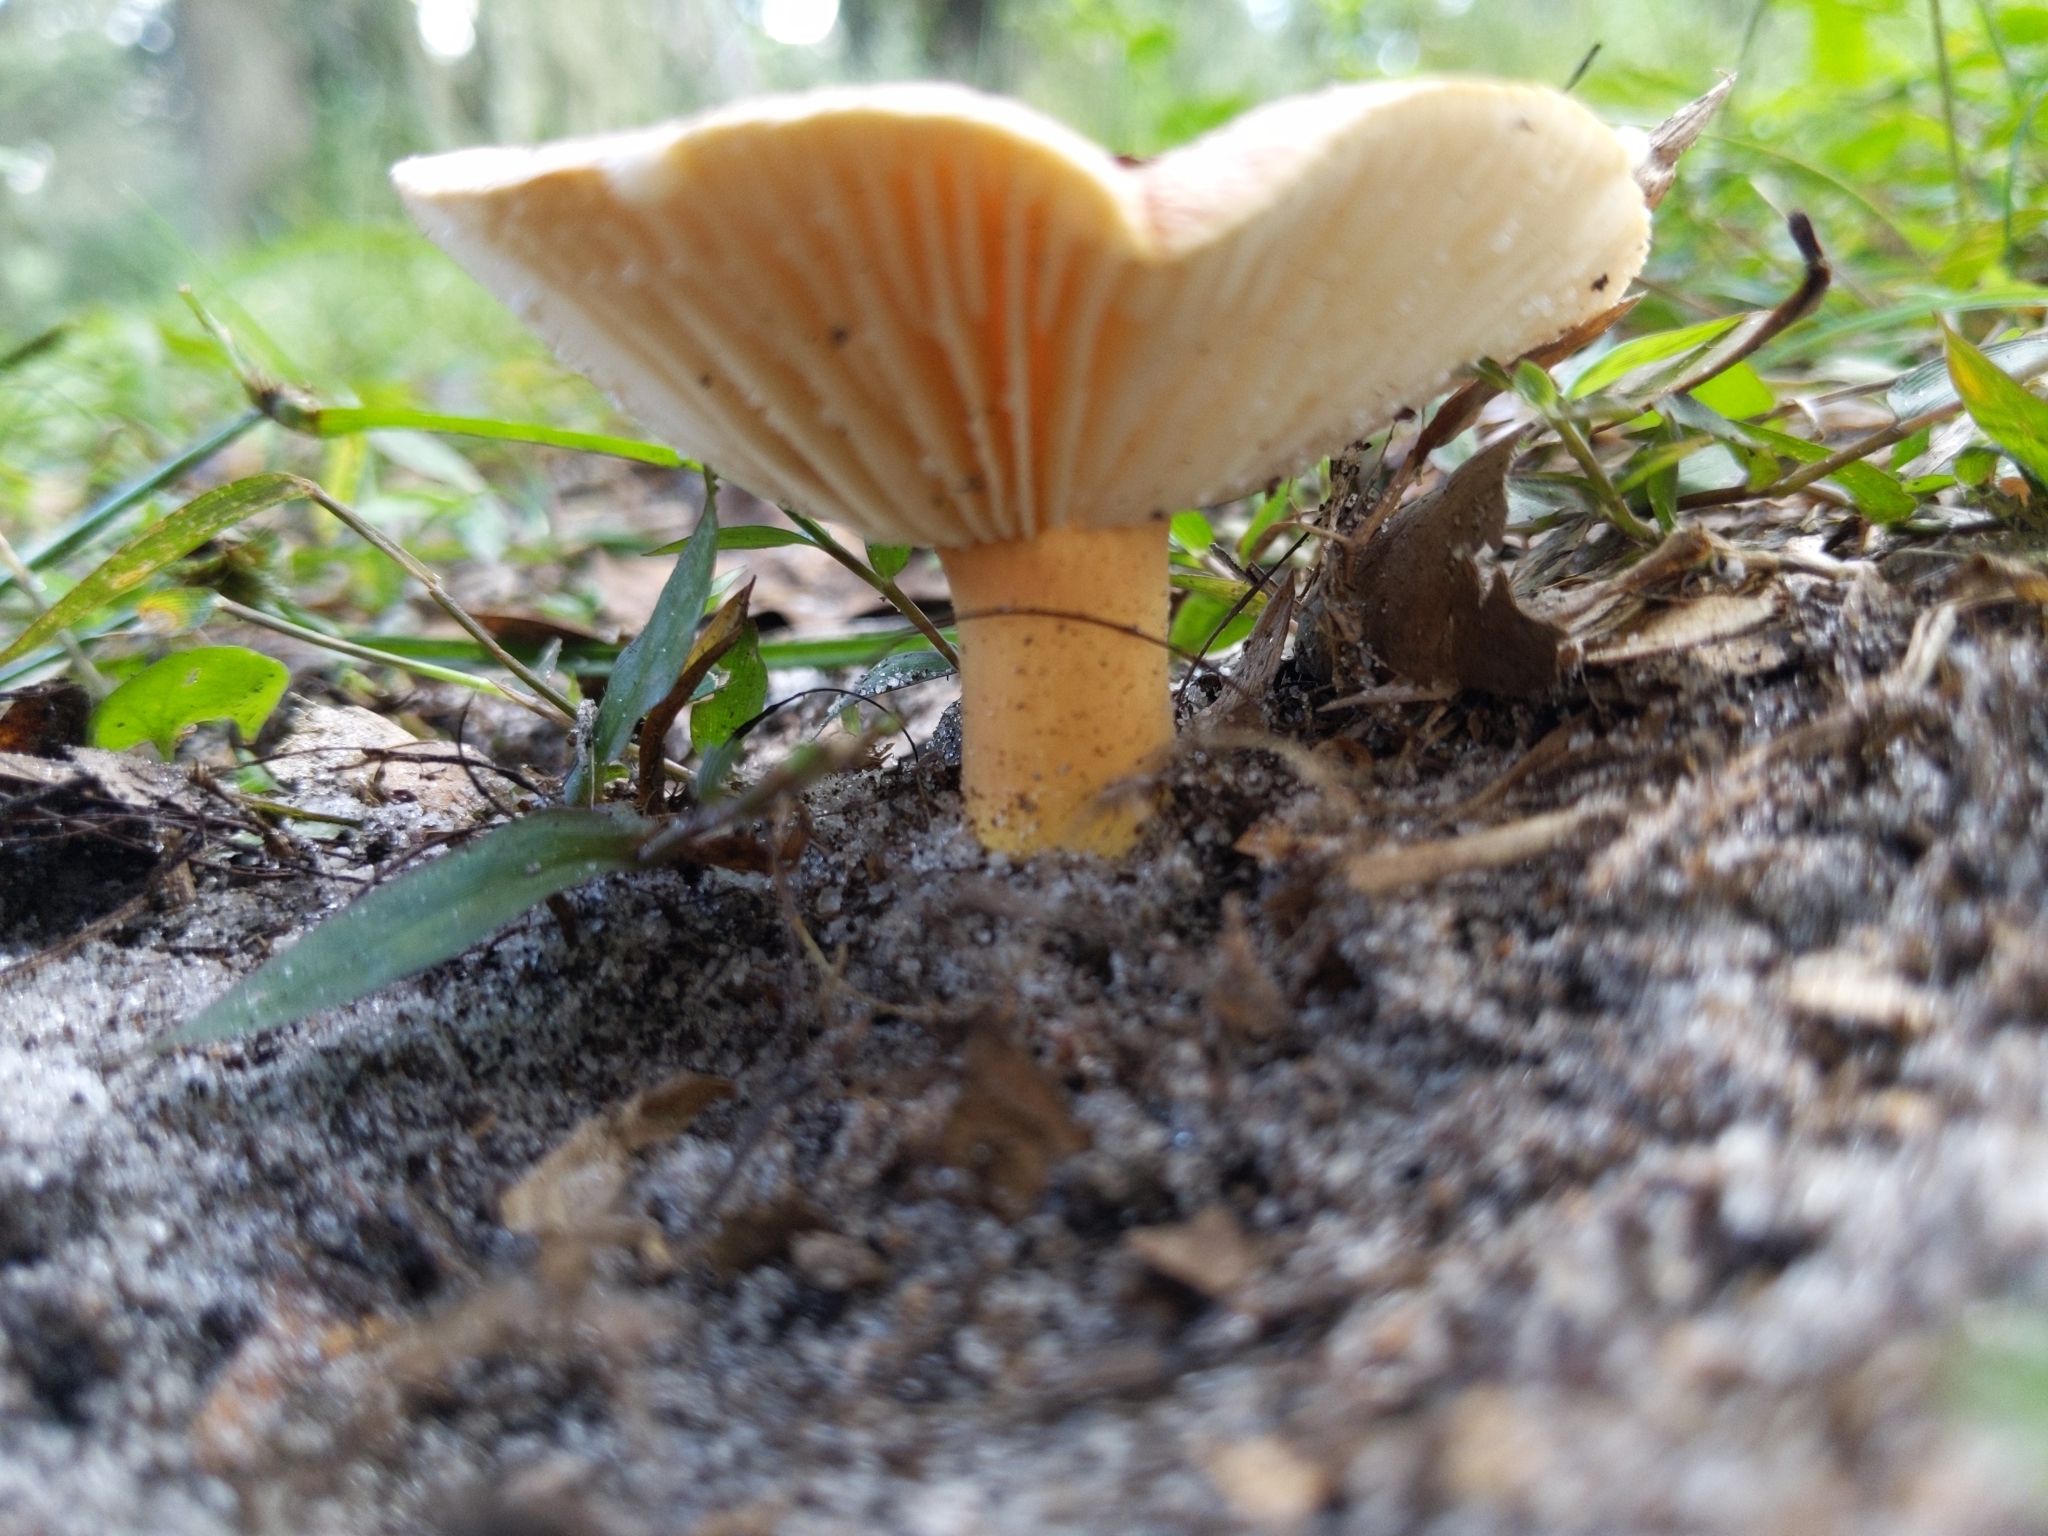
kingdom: Fungi
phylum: Basidiomycota
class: Agaricomycetes
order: Russulales
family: Russulaceae
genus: Lactarius
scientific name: Lactarius hygrophoroides
